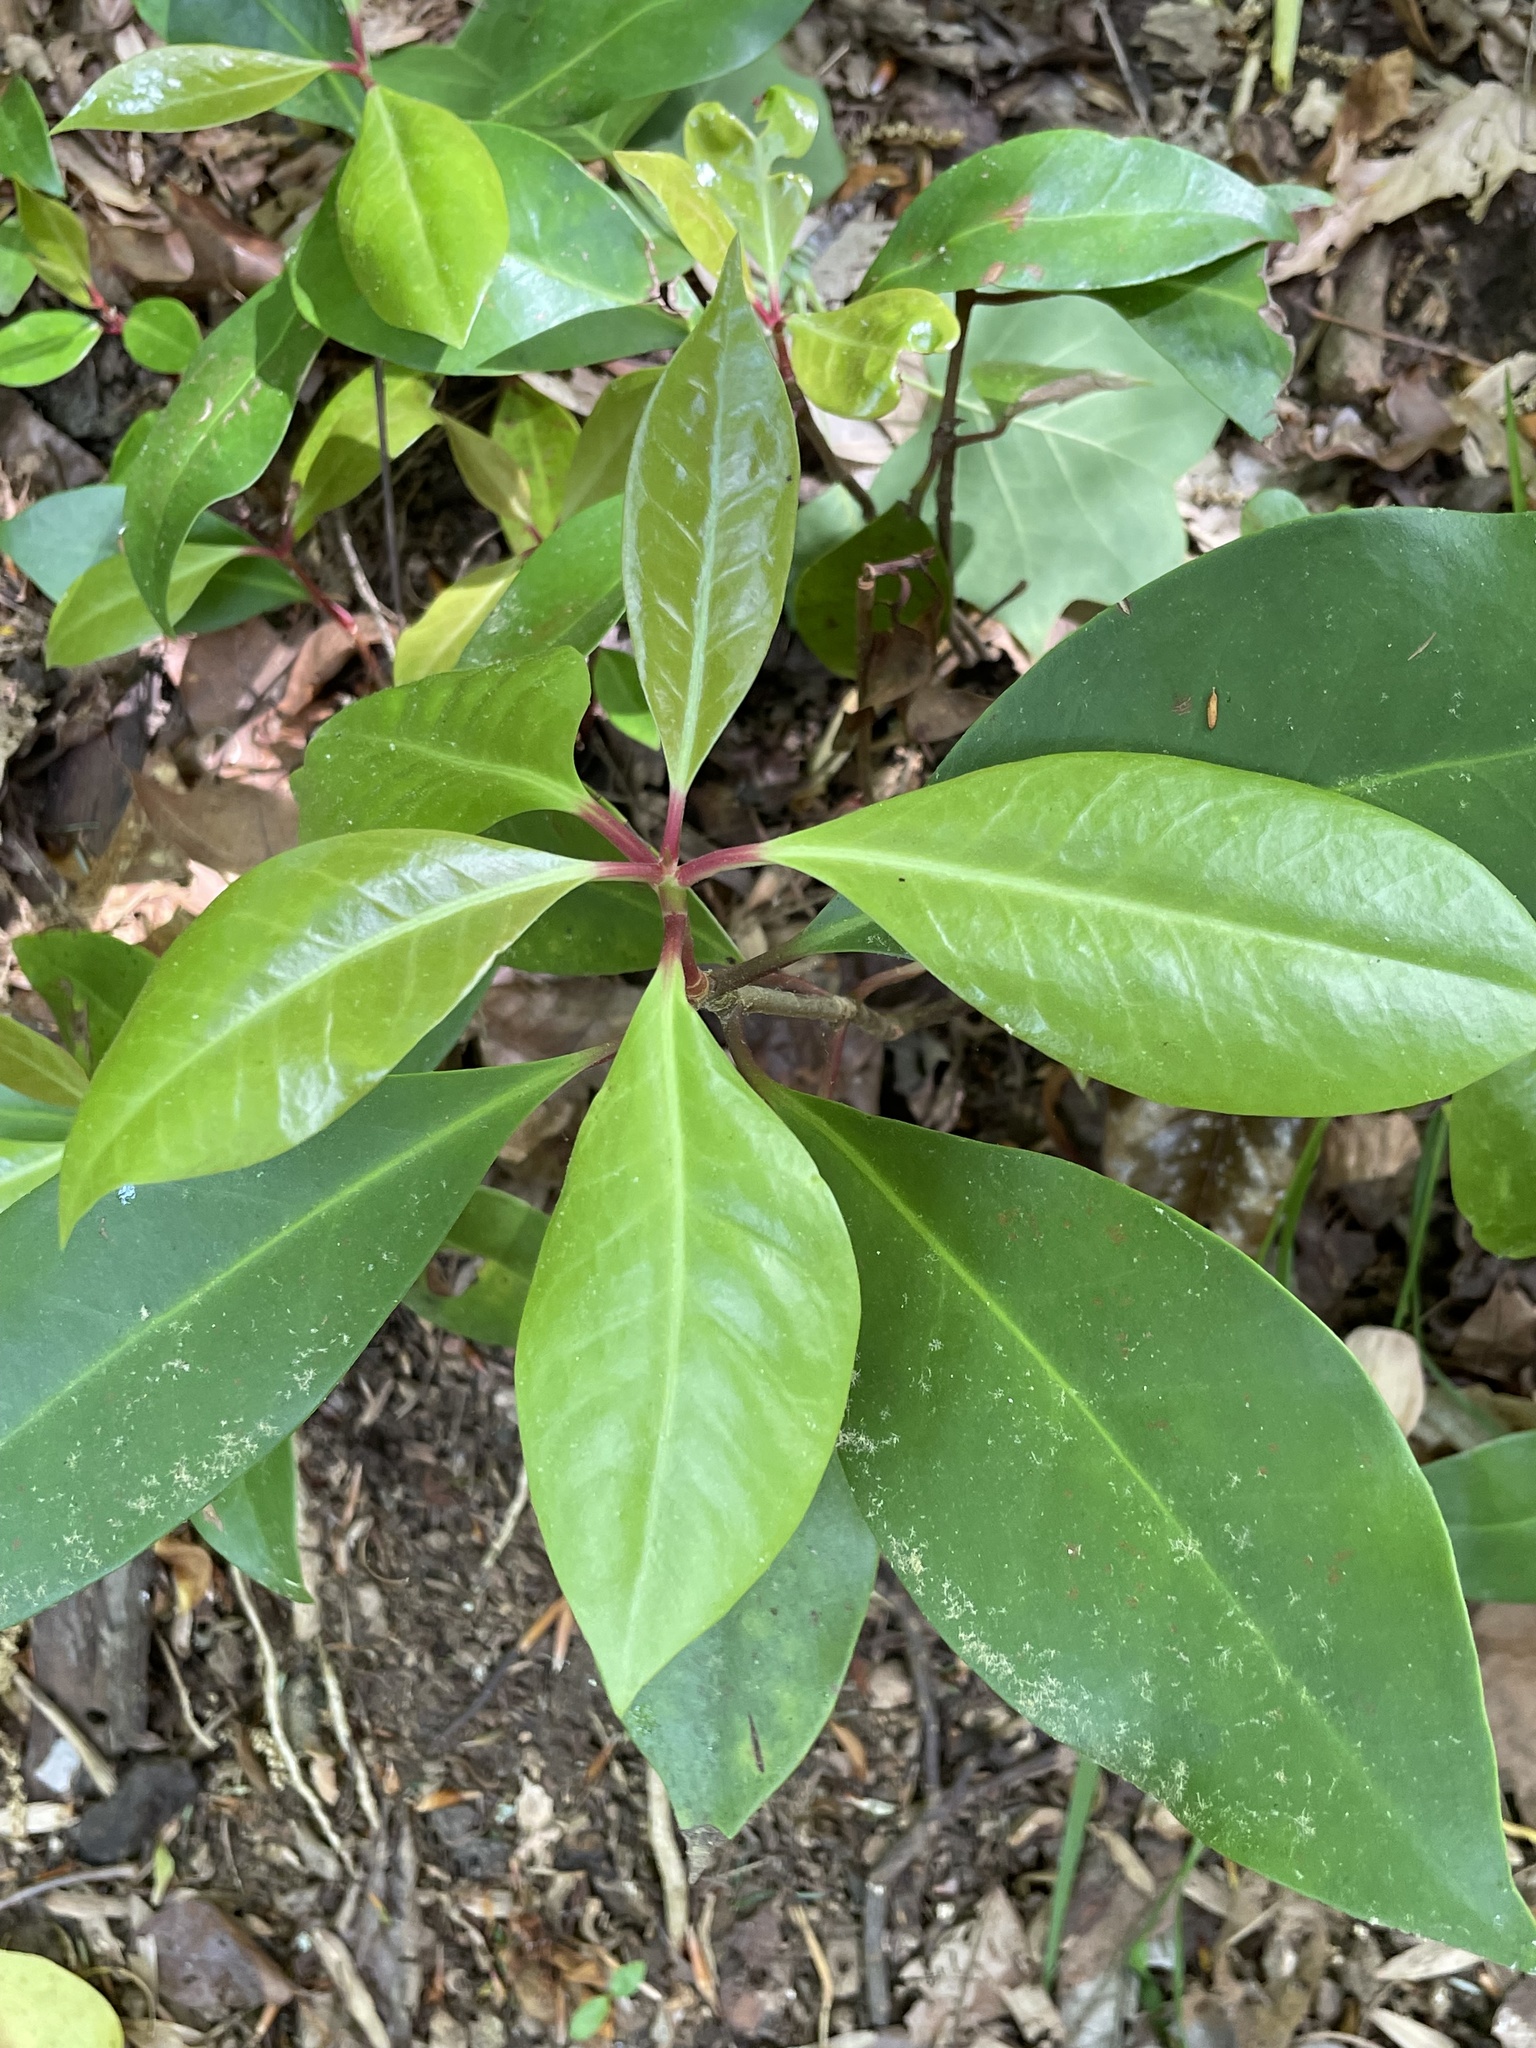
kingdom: Plantae
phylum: Tracheophyta
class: Magnoliopsida
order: Austrobaileyales
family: Schisandraceae
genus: Illicium
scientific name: Illicium floridanum
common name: Florida anisetree
